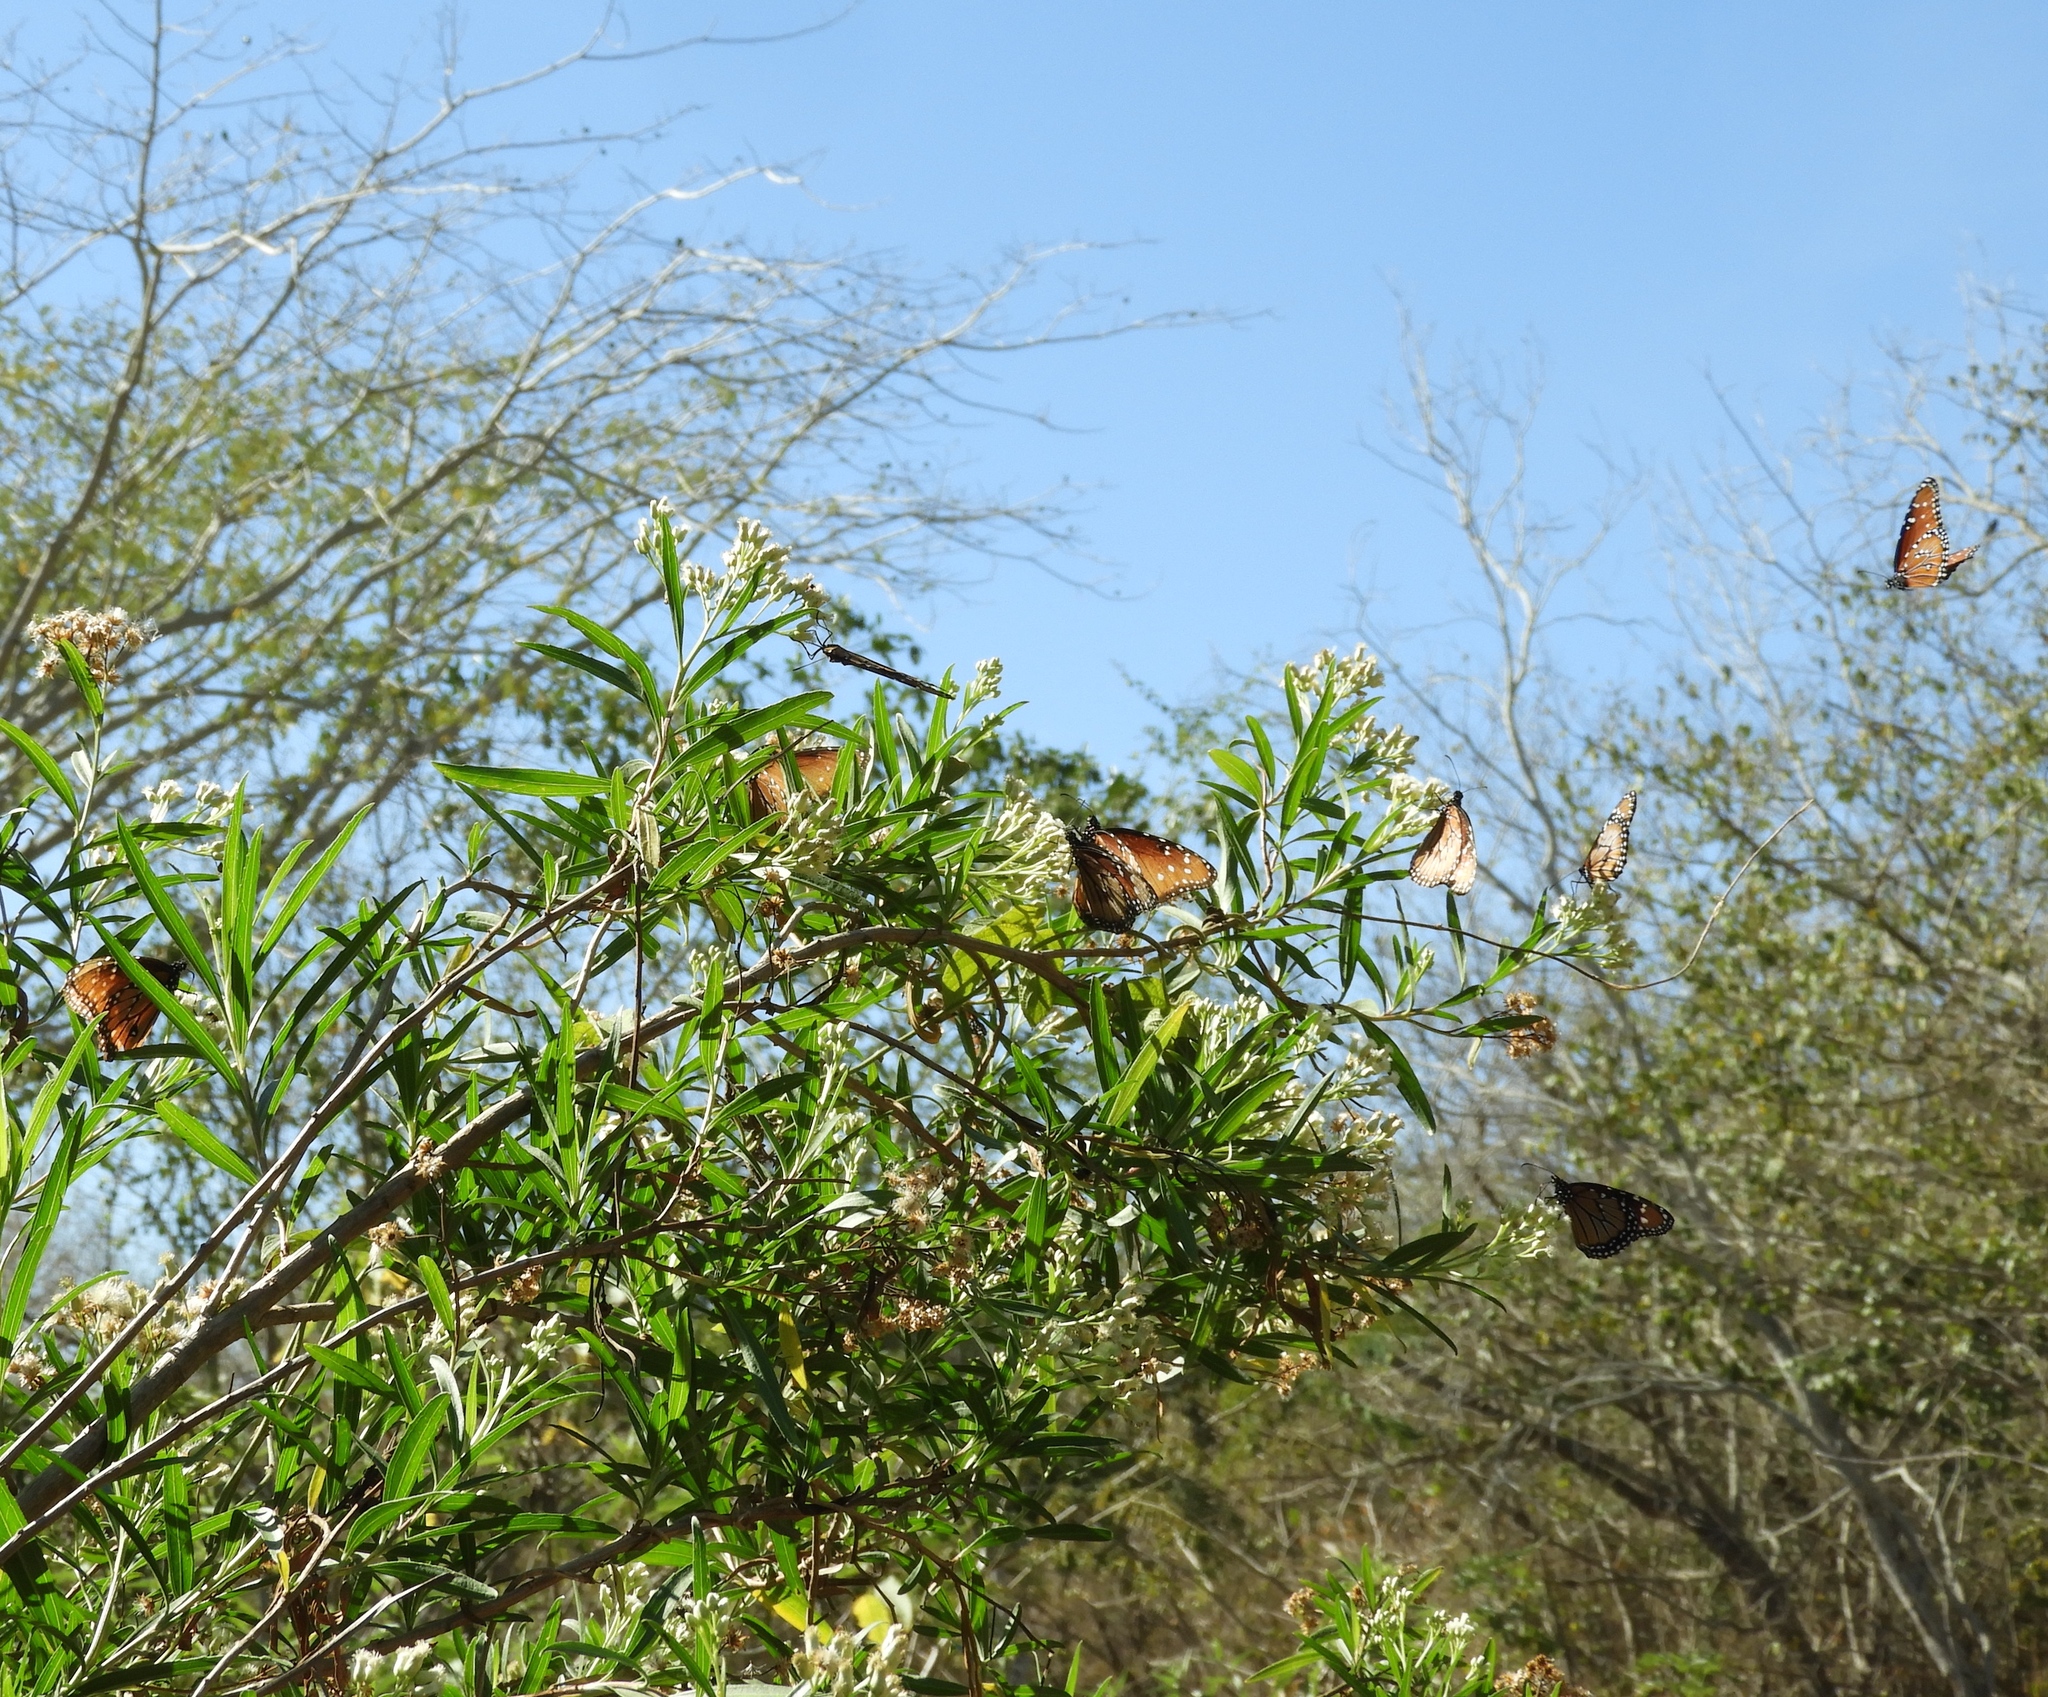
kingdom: Animalia
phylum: Arthropoda
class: Insecta
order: Lepidoptera
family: Nymphalidae
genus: Danaus
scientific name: Danaus gilippus
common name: Queen
